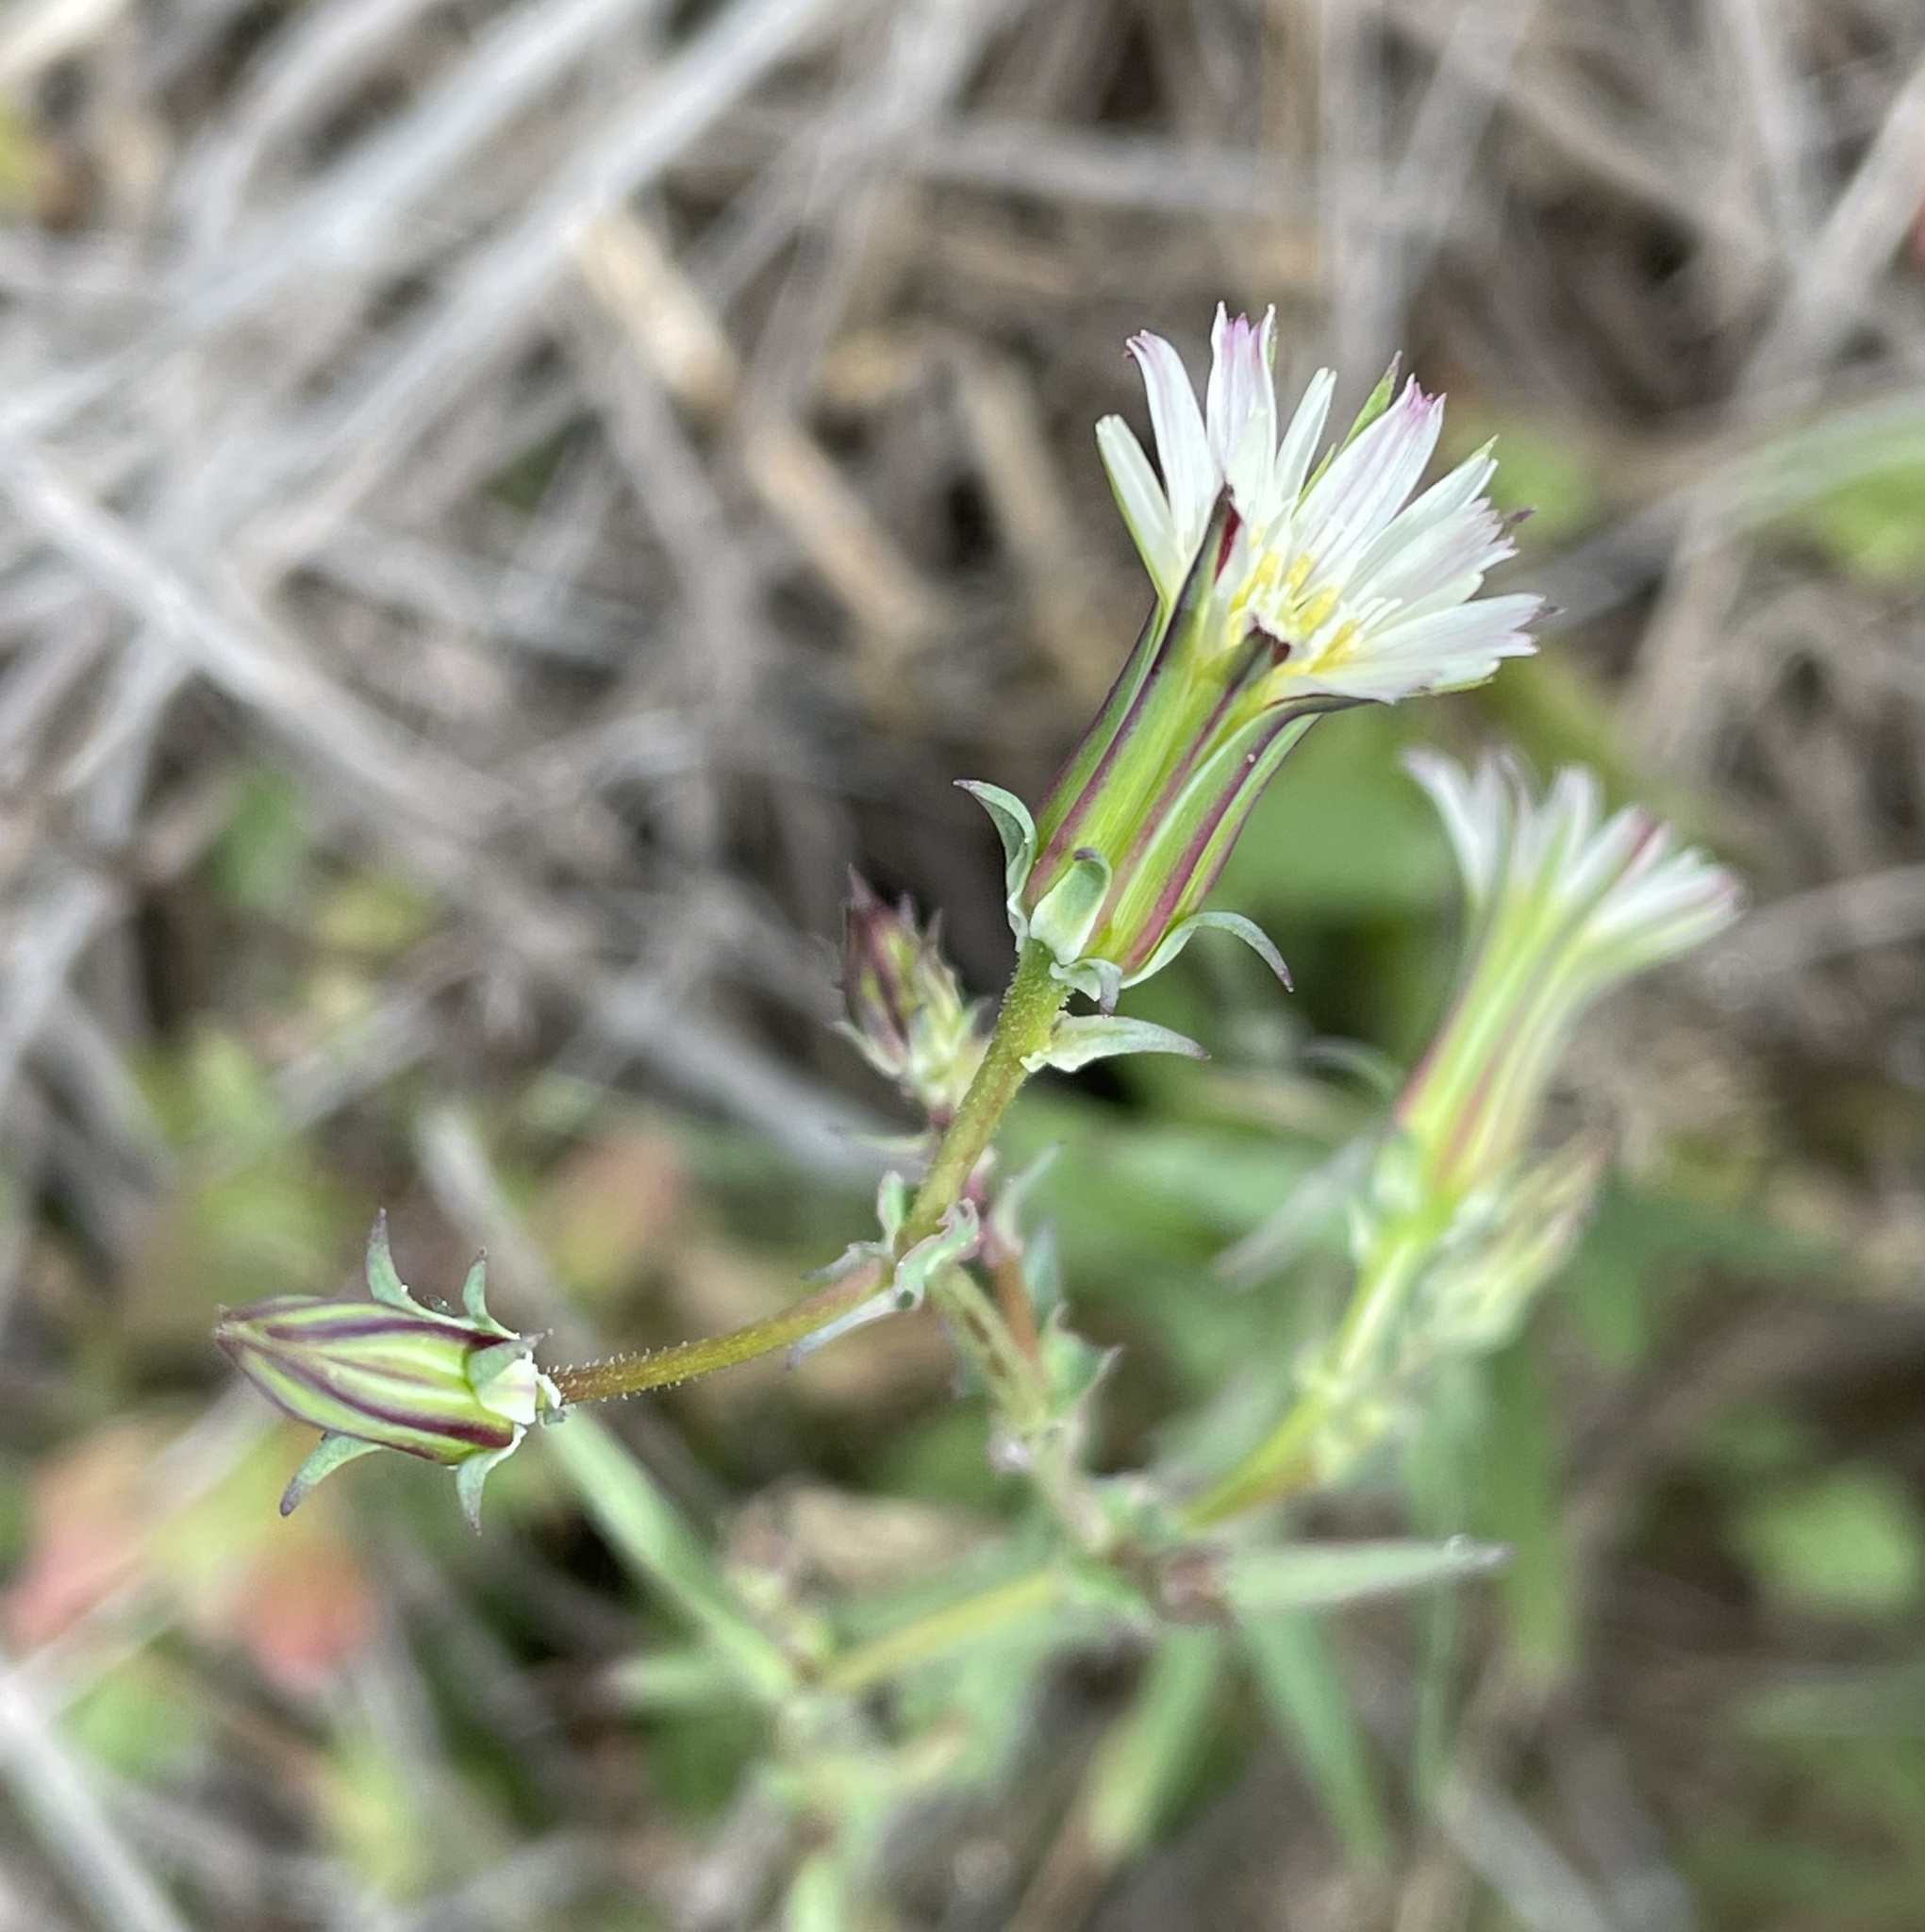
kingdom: Plantae
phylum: Tracheophyta
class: Magnoliopsida
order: Asterales
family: Asteraceae
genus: Rafinesquia
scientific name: Rafinesquia californica
